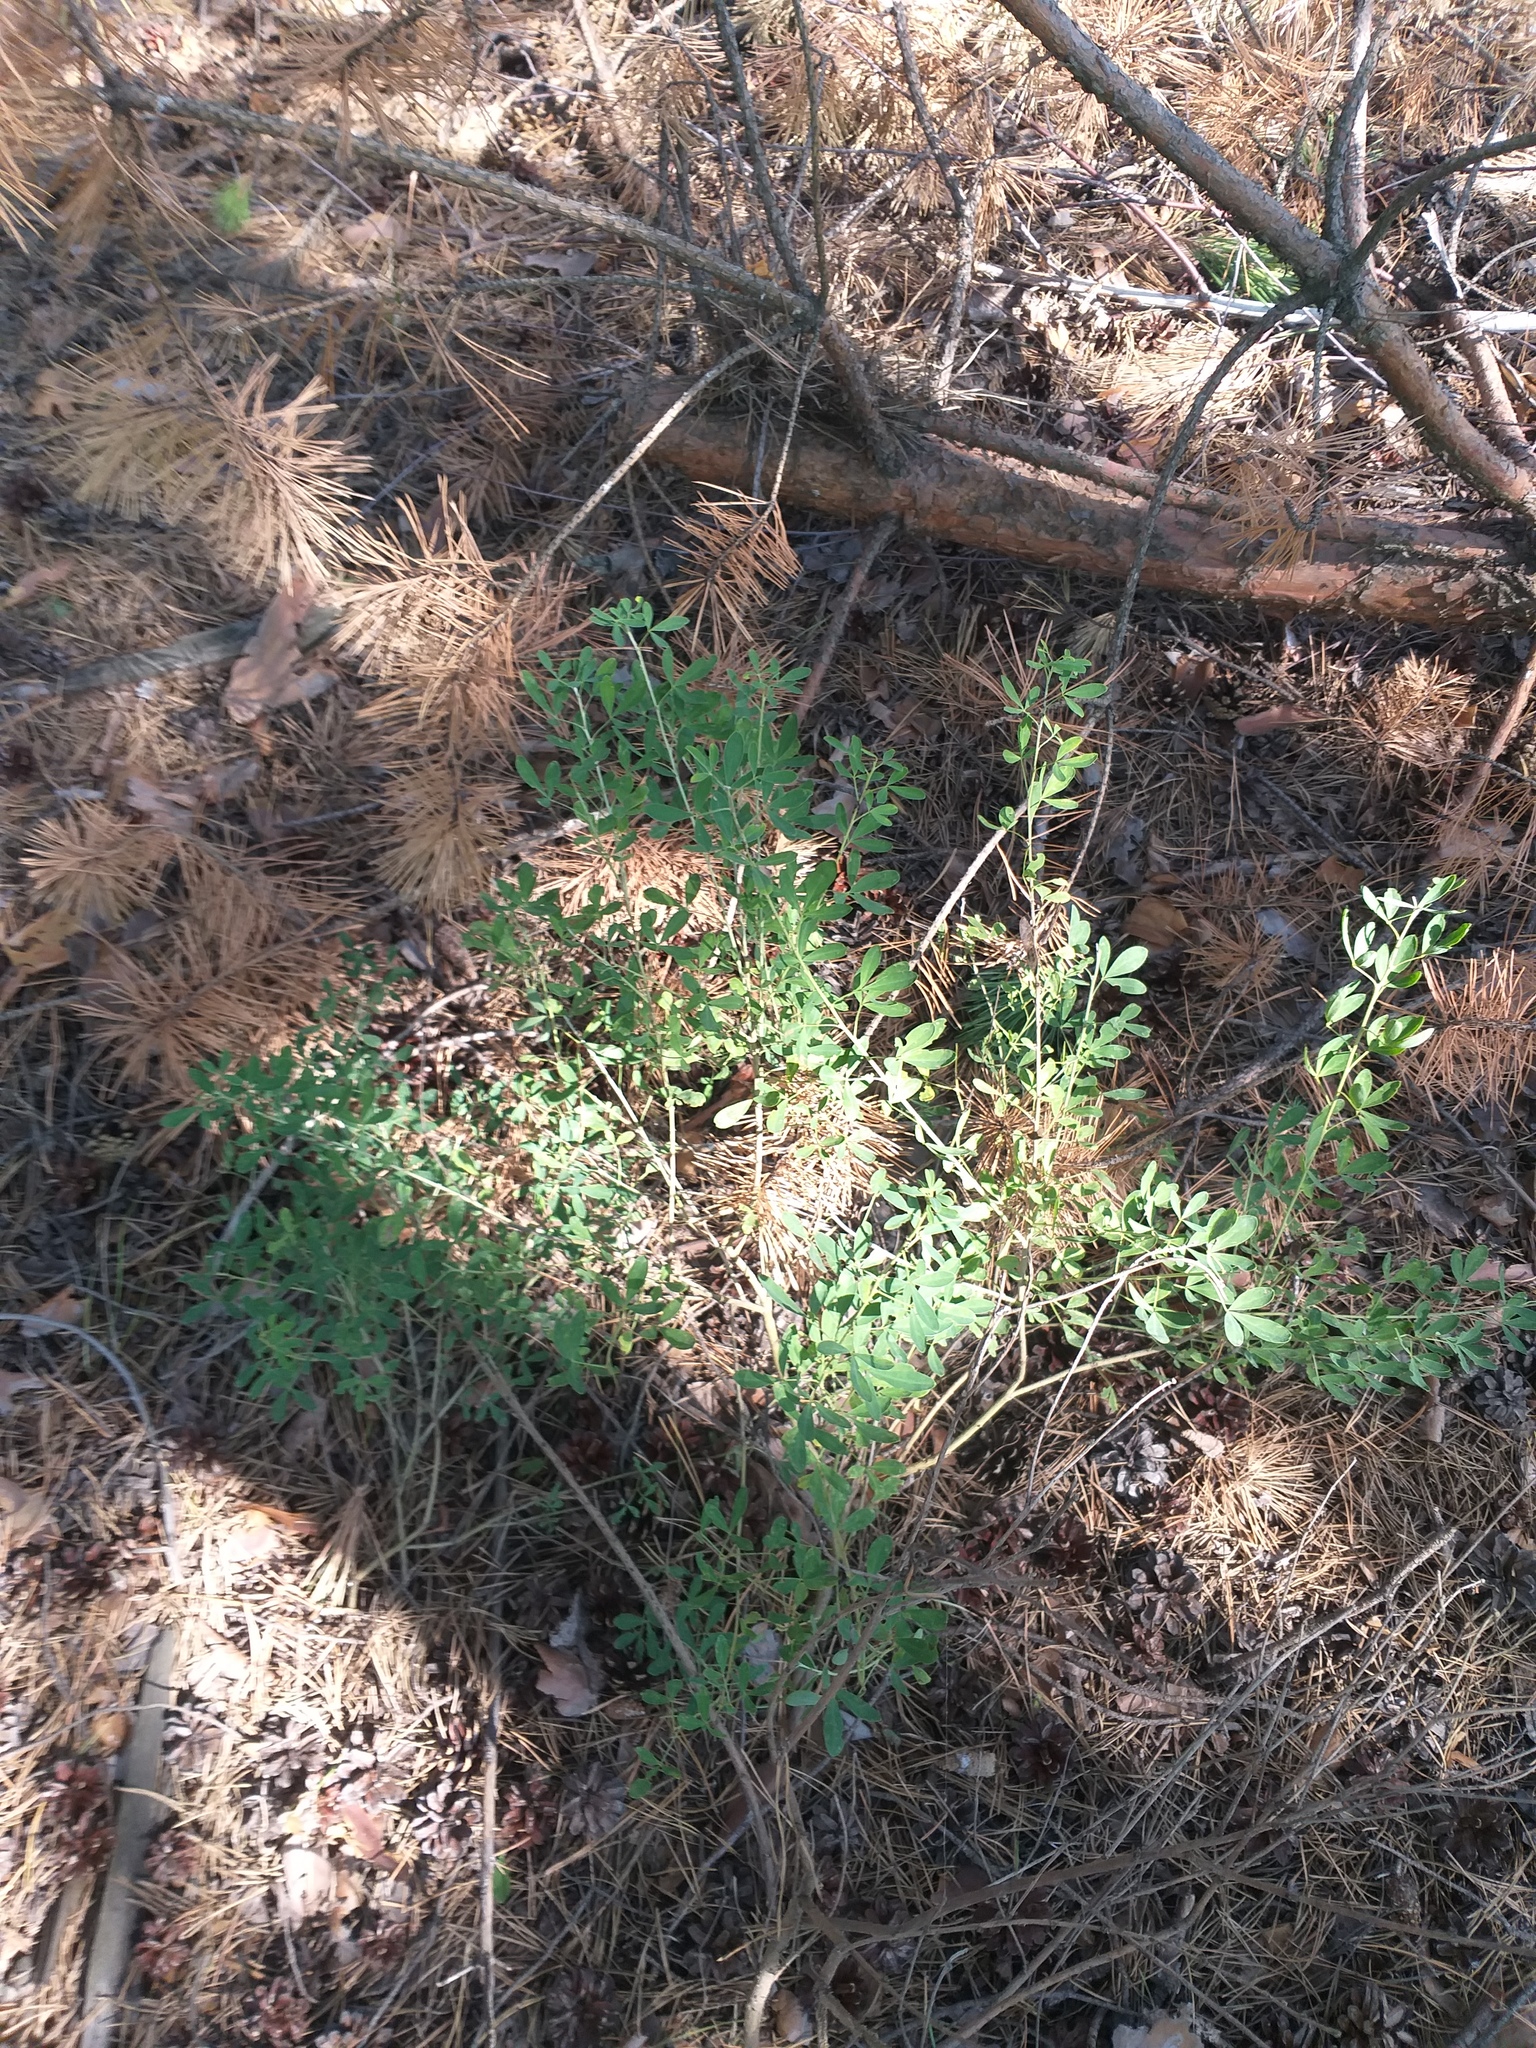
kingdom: Plantae
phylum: Tracheophyta
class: Magnoliopsida
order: Fabales
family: Fabaceae
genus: Chamaecytisus
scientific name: Chamaecytisus ruthenicus
